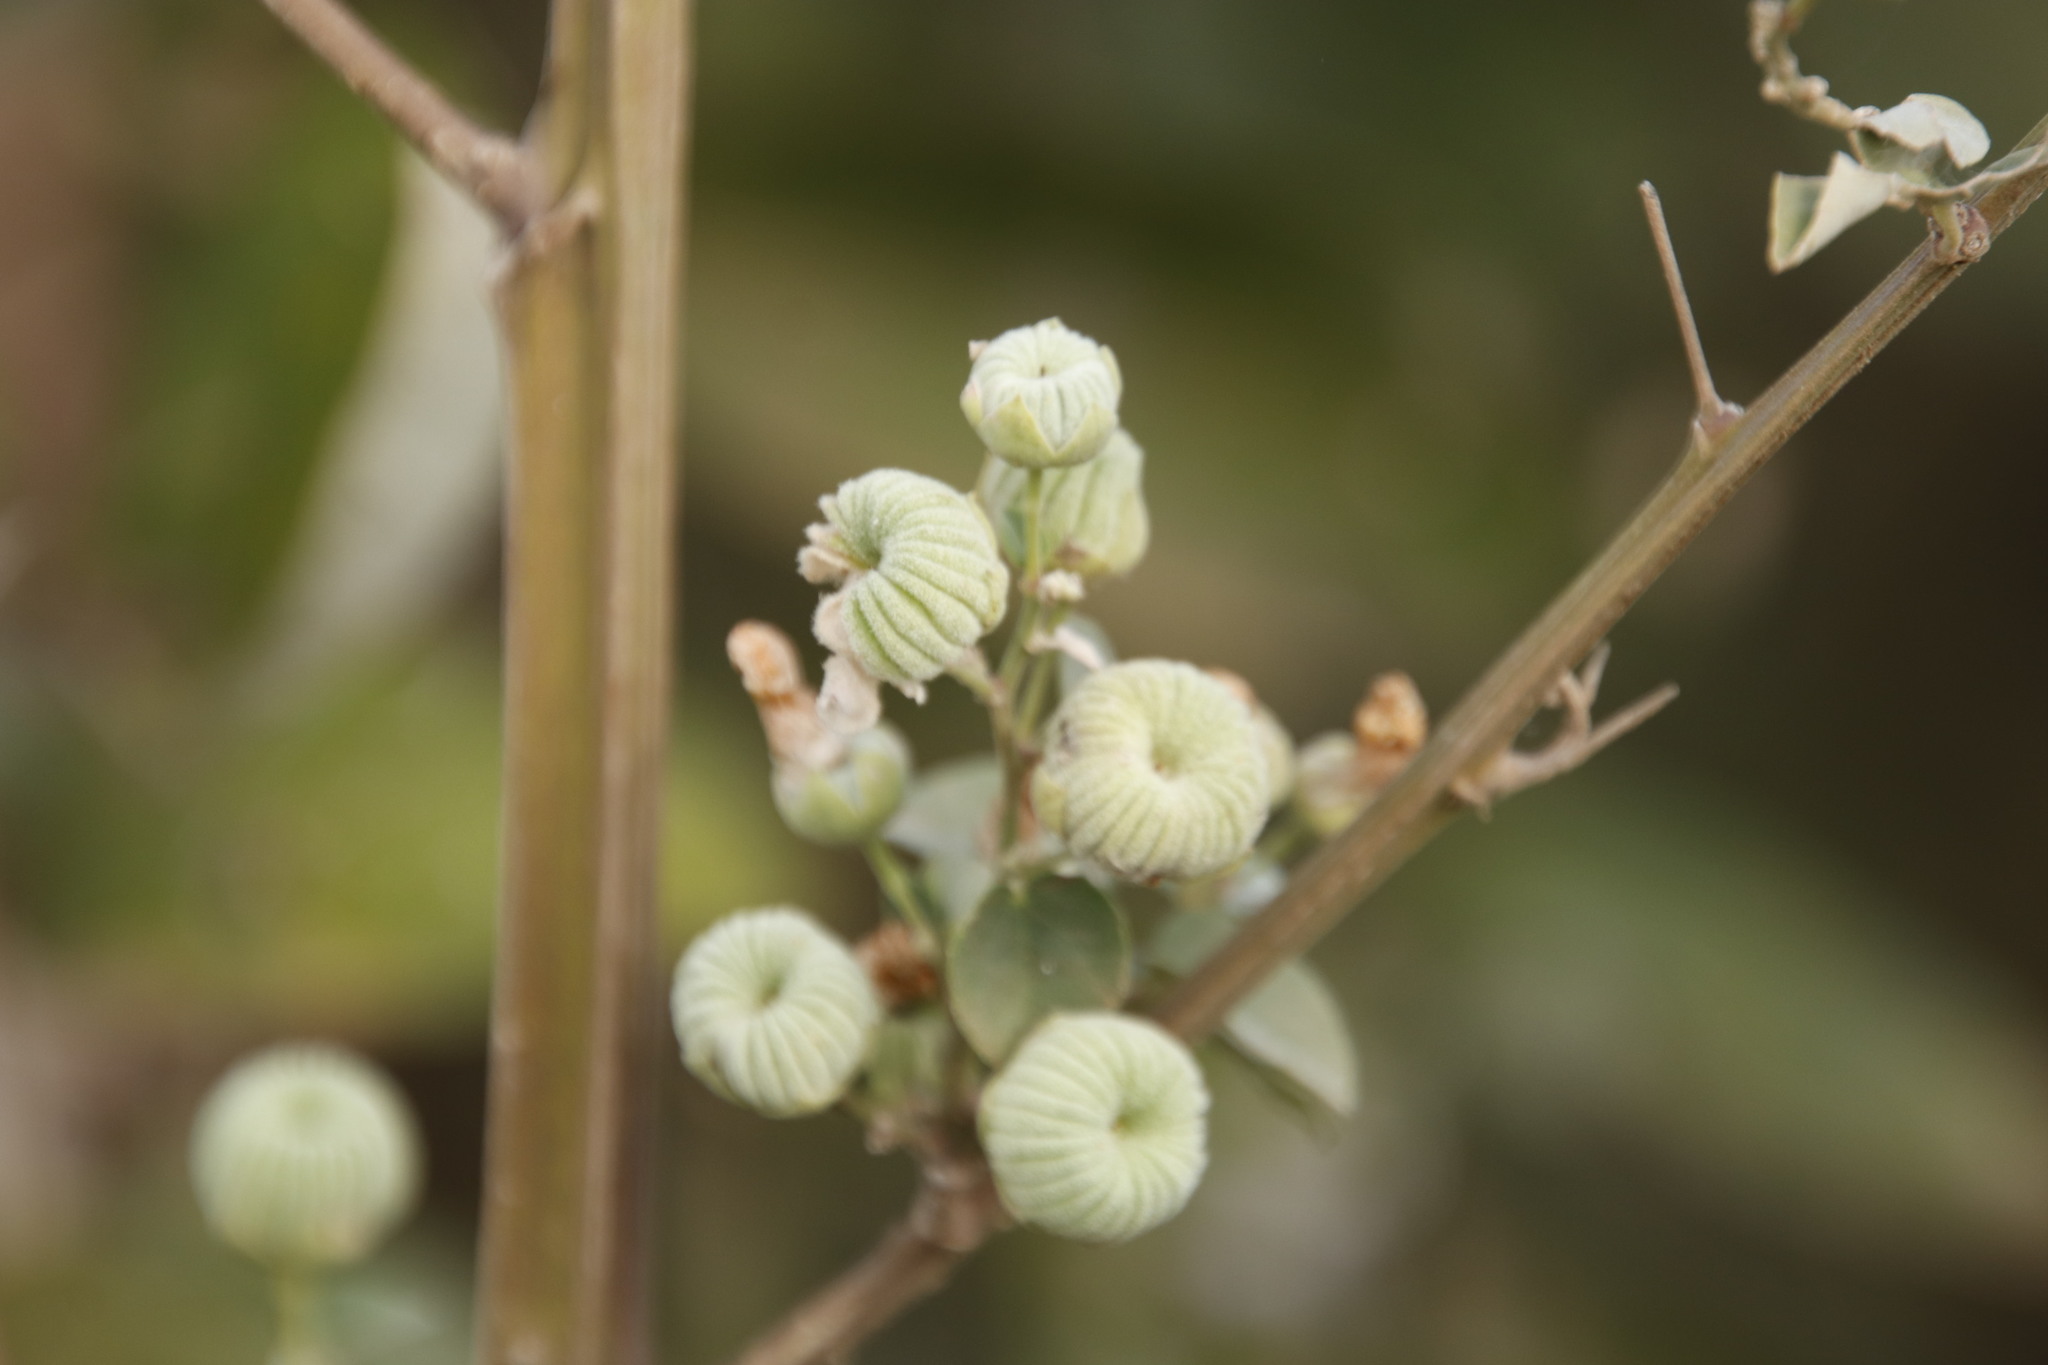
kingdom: Plantae
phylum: Tracheophyta
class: Magnoliopsida
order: Malvales
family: Malvaceae
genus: Abutilon
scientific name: Abutilon angulatum
